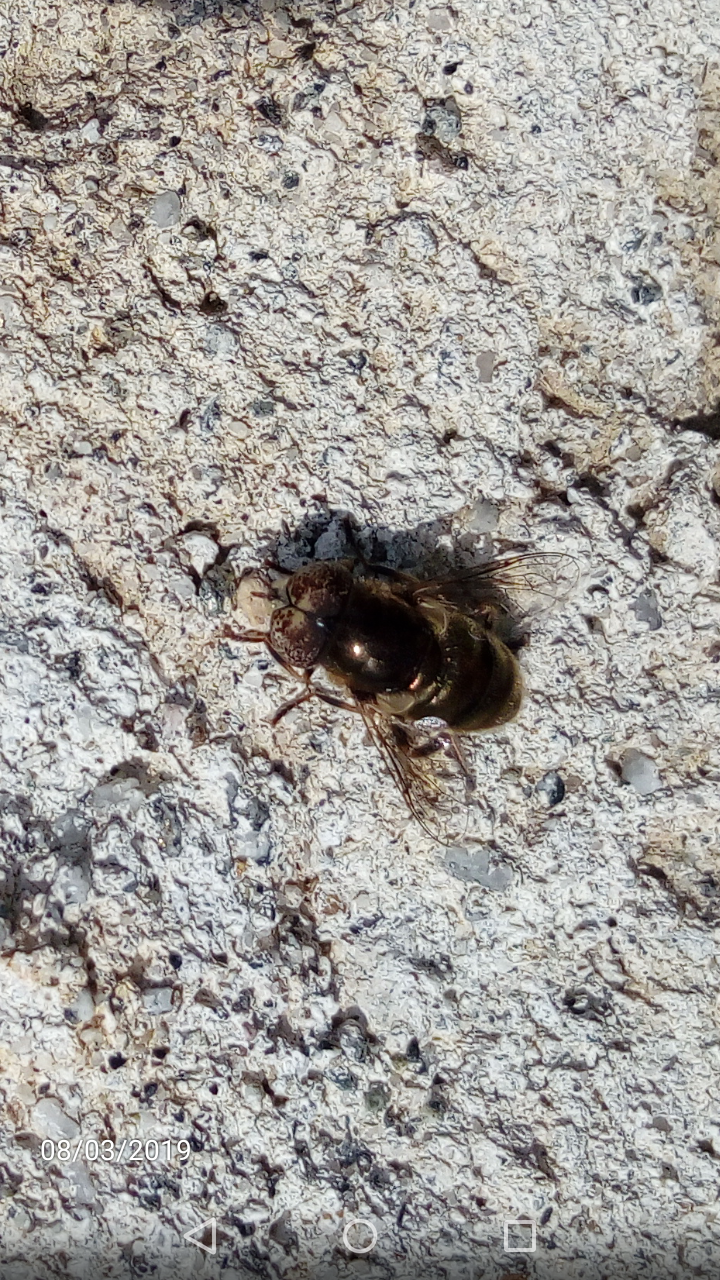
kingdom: Animalia
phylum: Arthropoda
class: Insecta
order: Diptera
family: Syrphidae
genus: Eristalinus
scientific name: Eristalinus aeneus
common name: Syrphid fly
